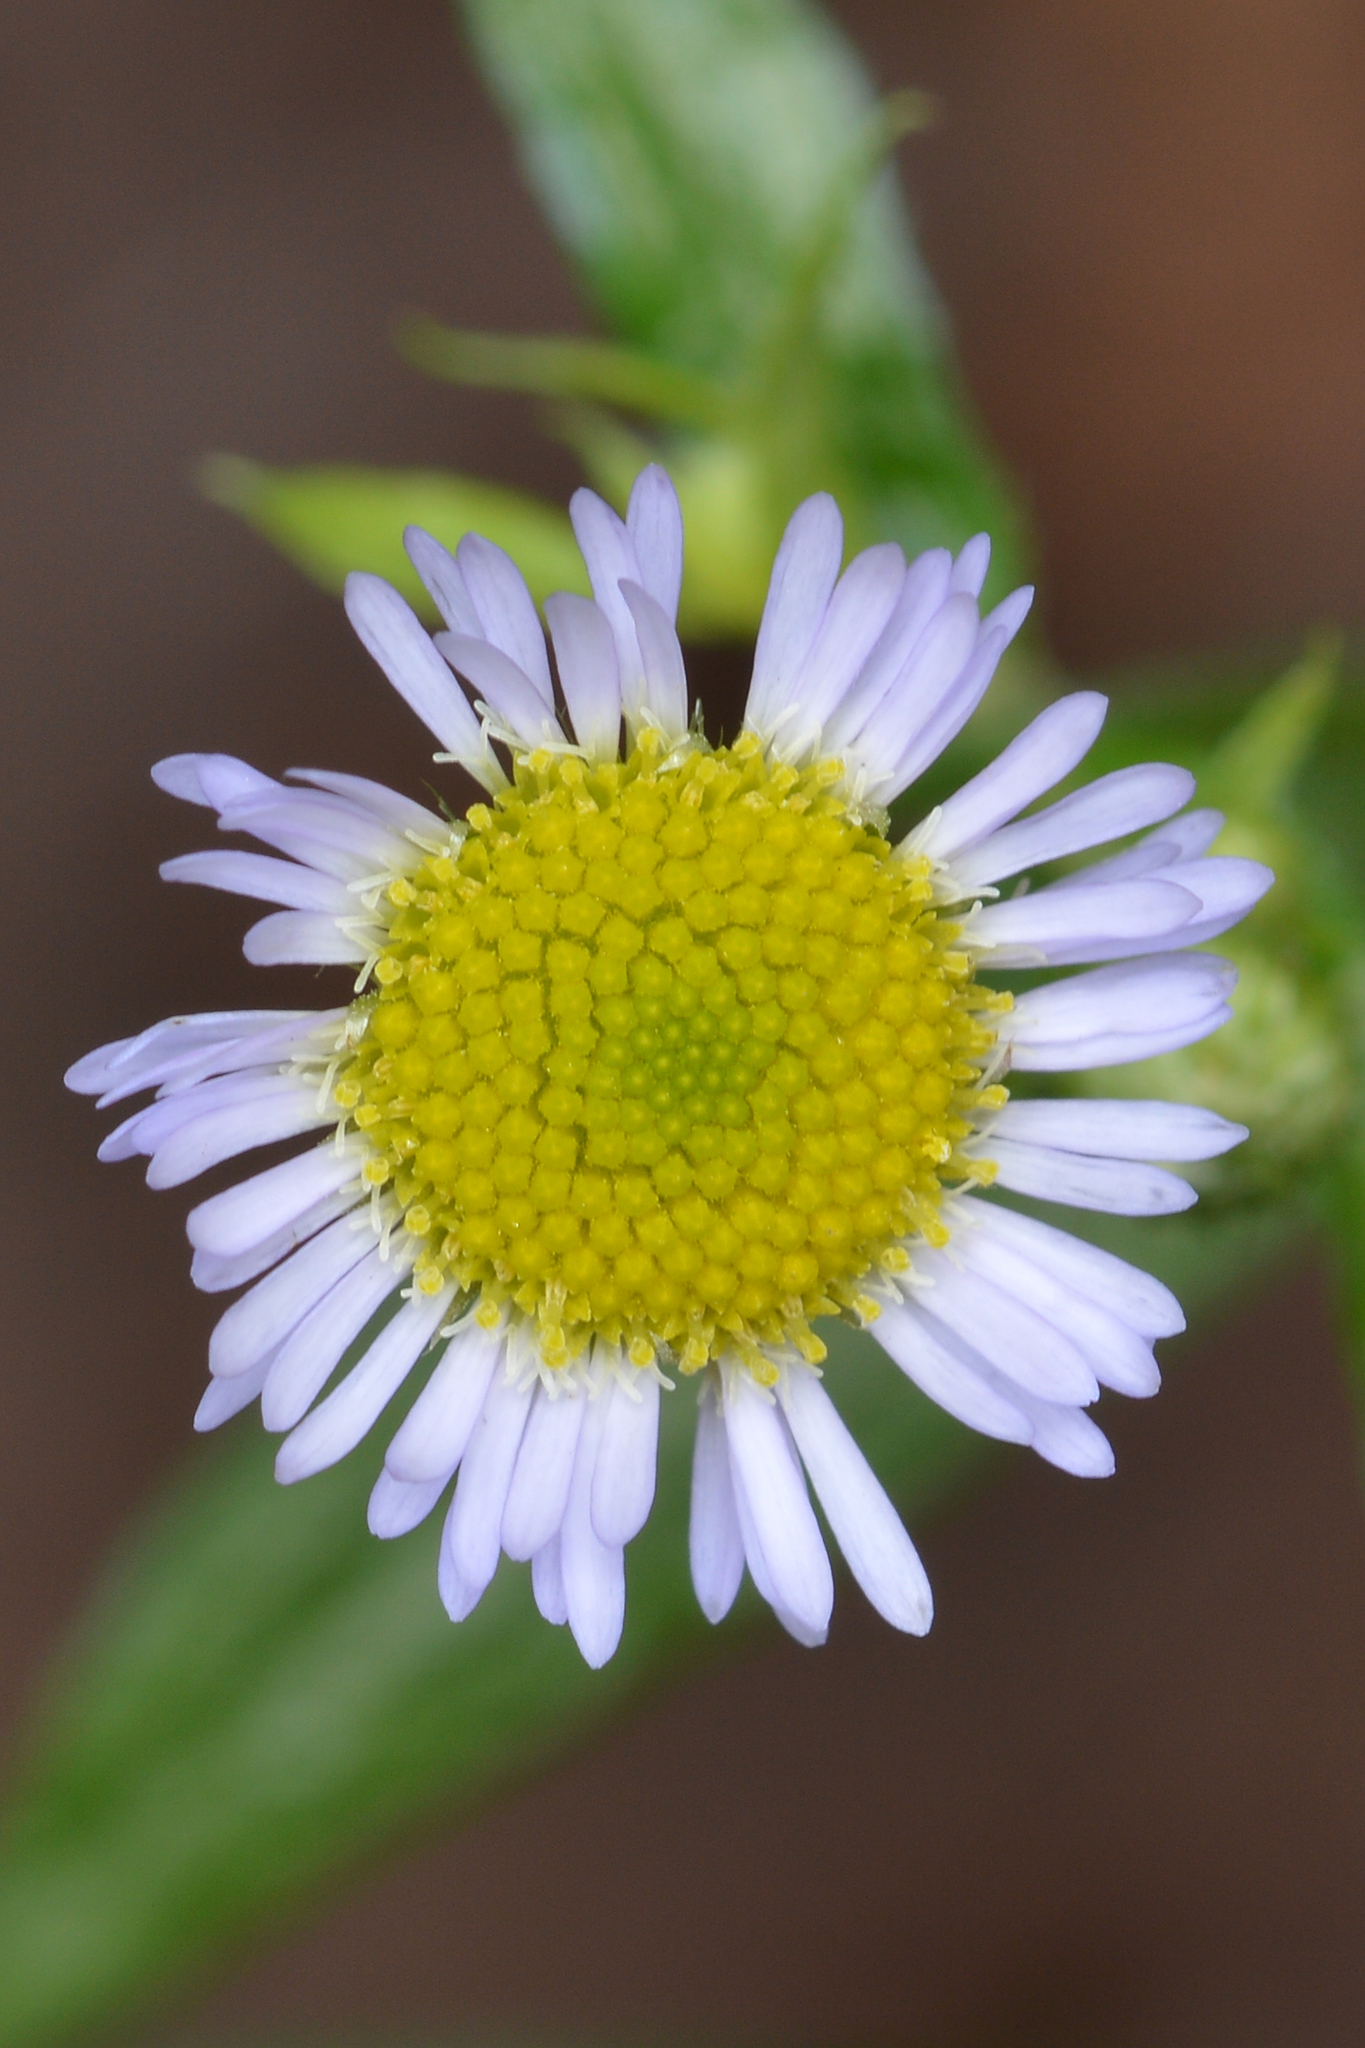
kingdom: Plantae
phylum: Tracheophyta
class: Magnoliopsida
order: Asterales
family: Asteraceae
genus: Erigeron
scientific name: Erigeron
